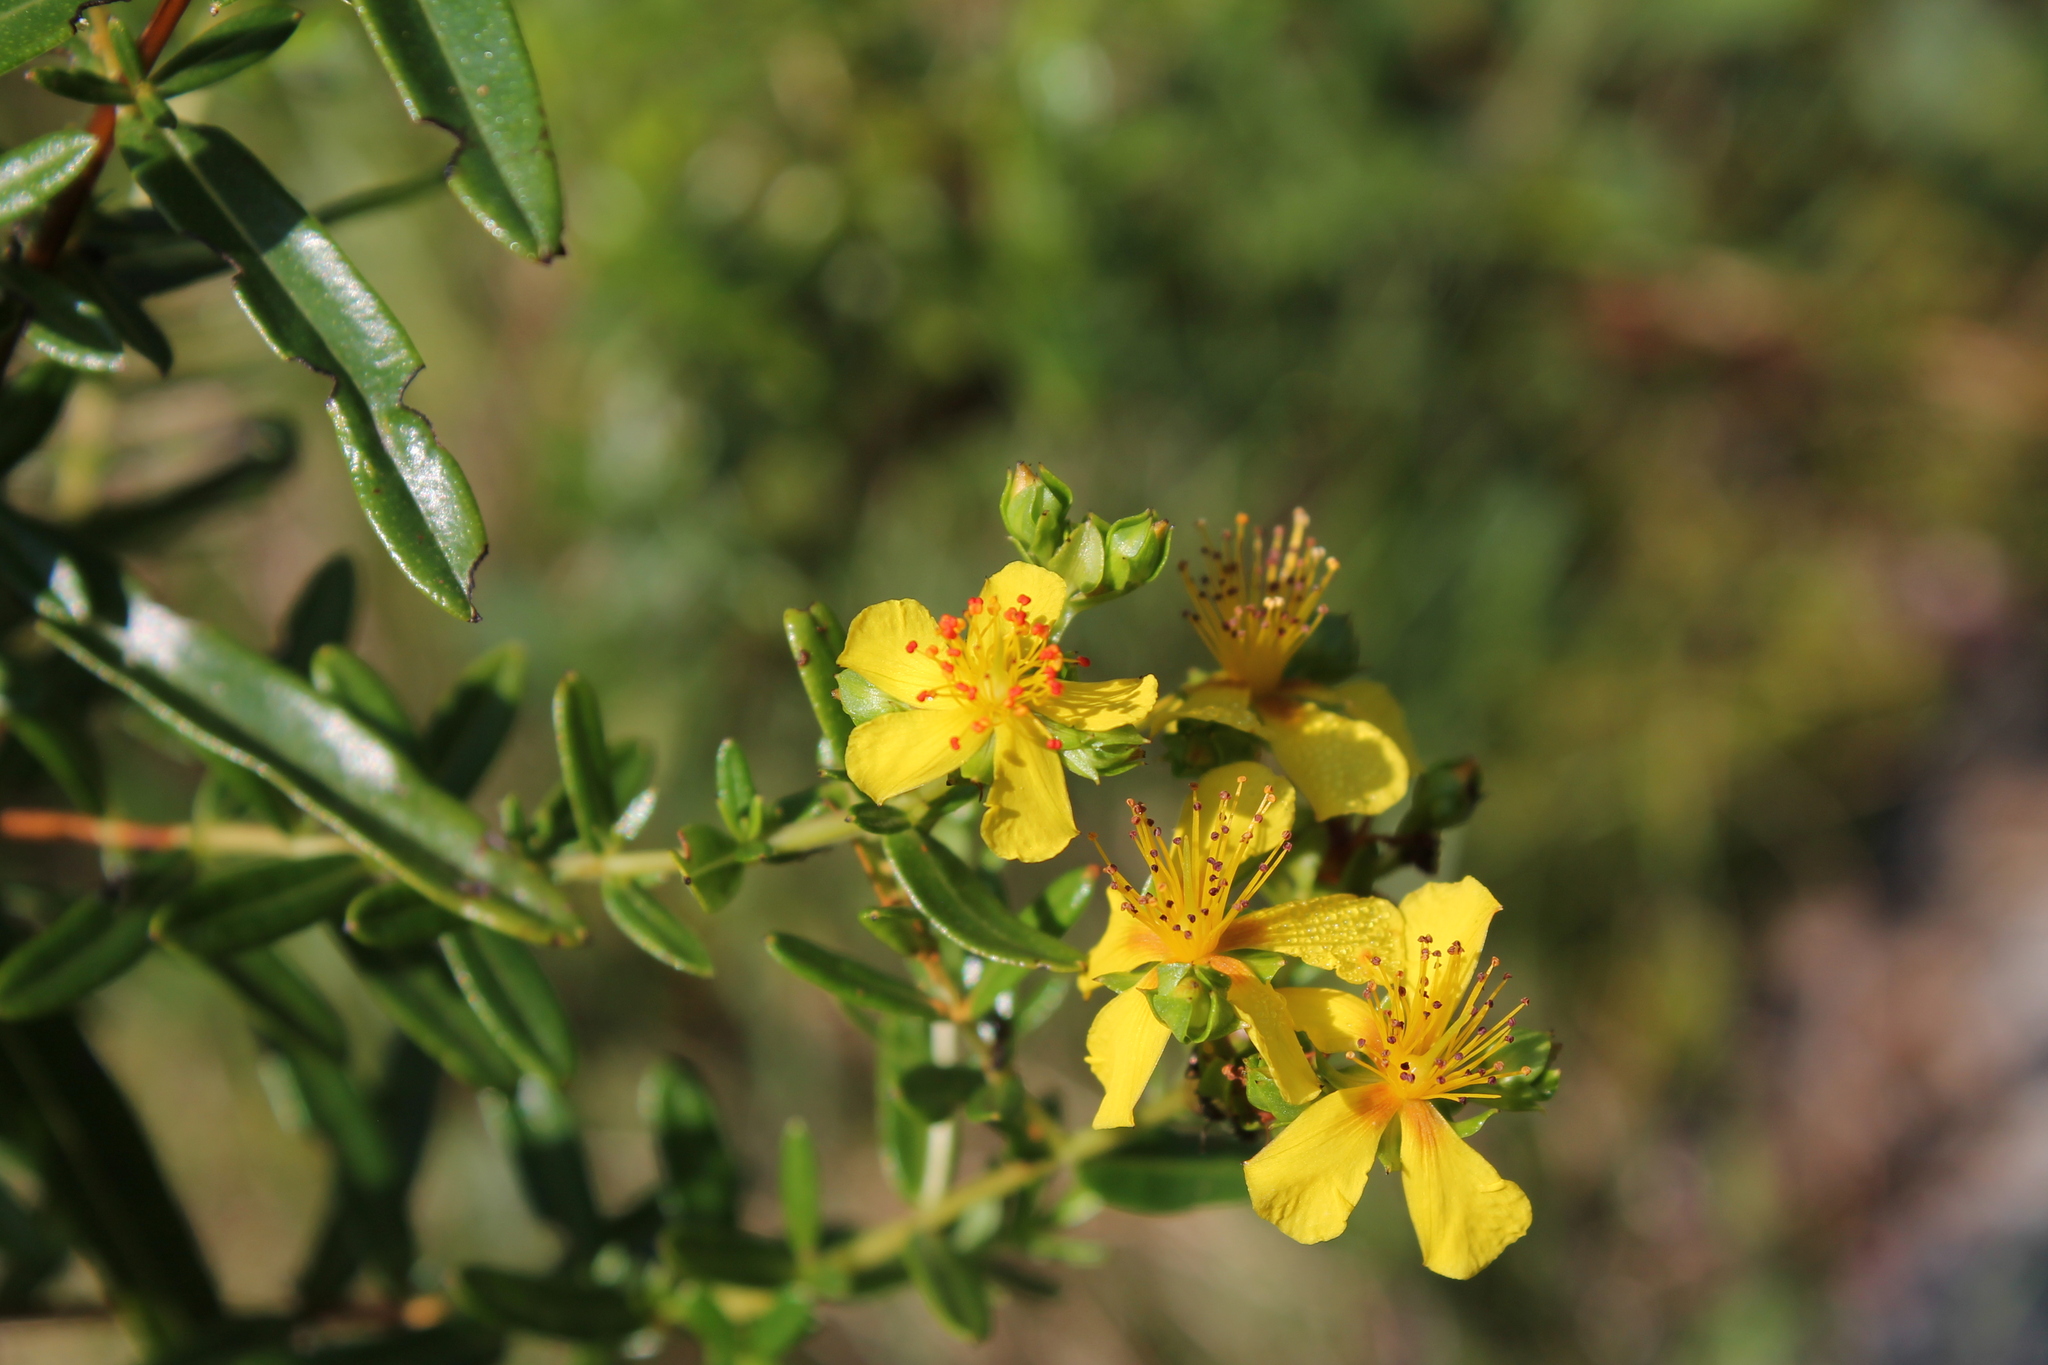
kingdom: Plantae
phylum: Tracheophyta
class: Magnoliopsida
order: Malpighiales
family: Hypericaceae
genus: Hypericum
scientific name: Hypericum sphaerocarpum
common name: Round-fruited st. john's-wort
